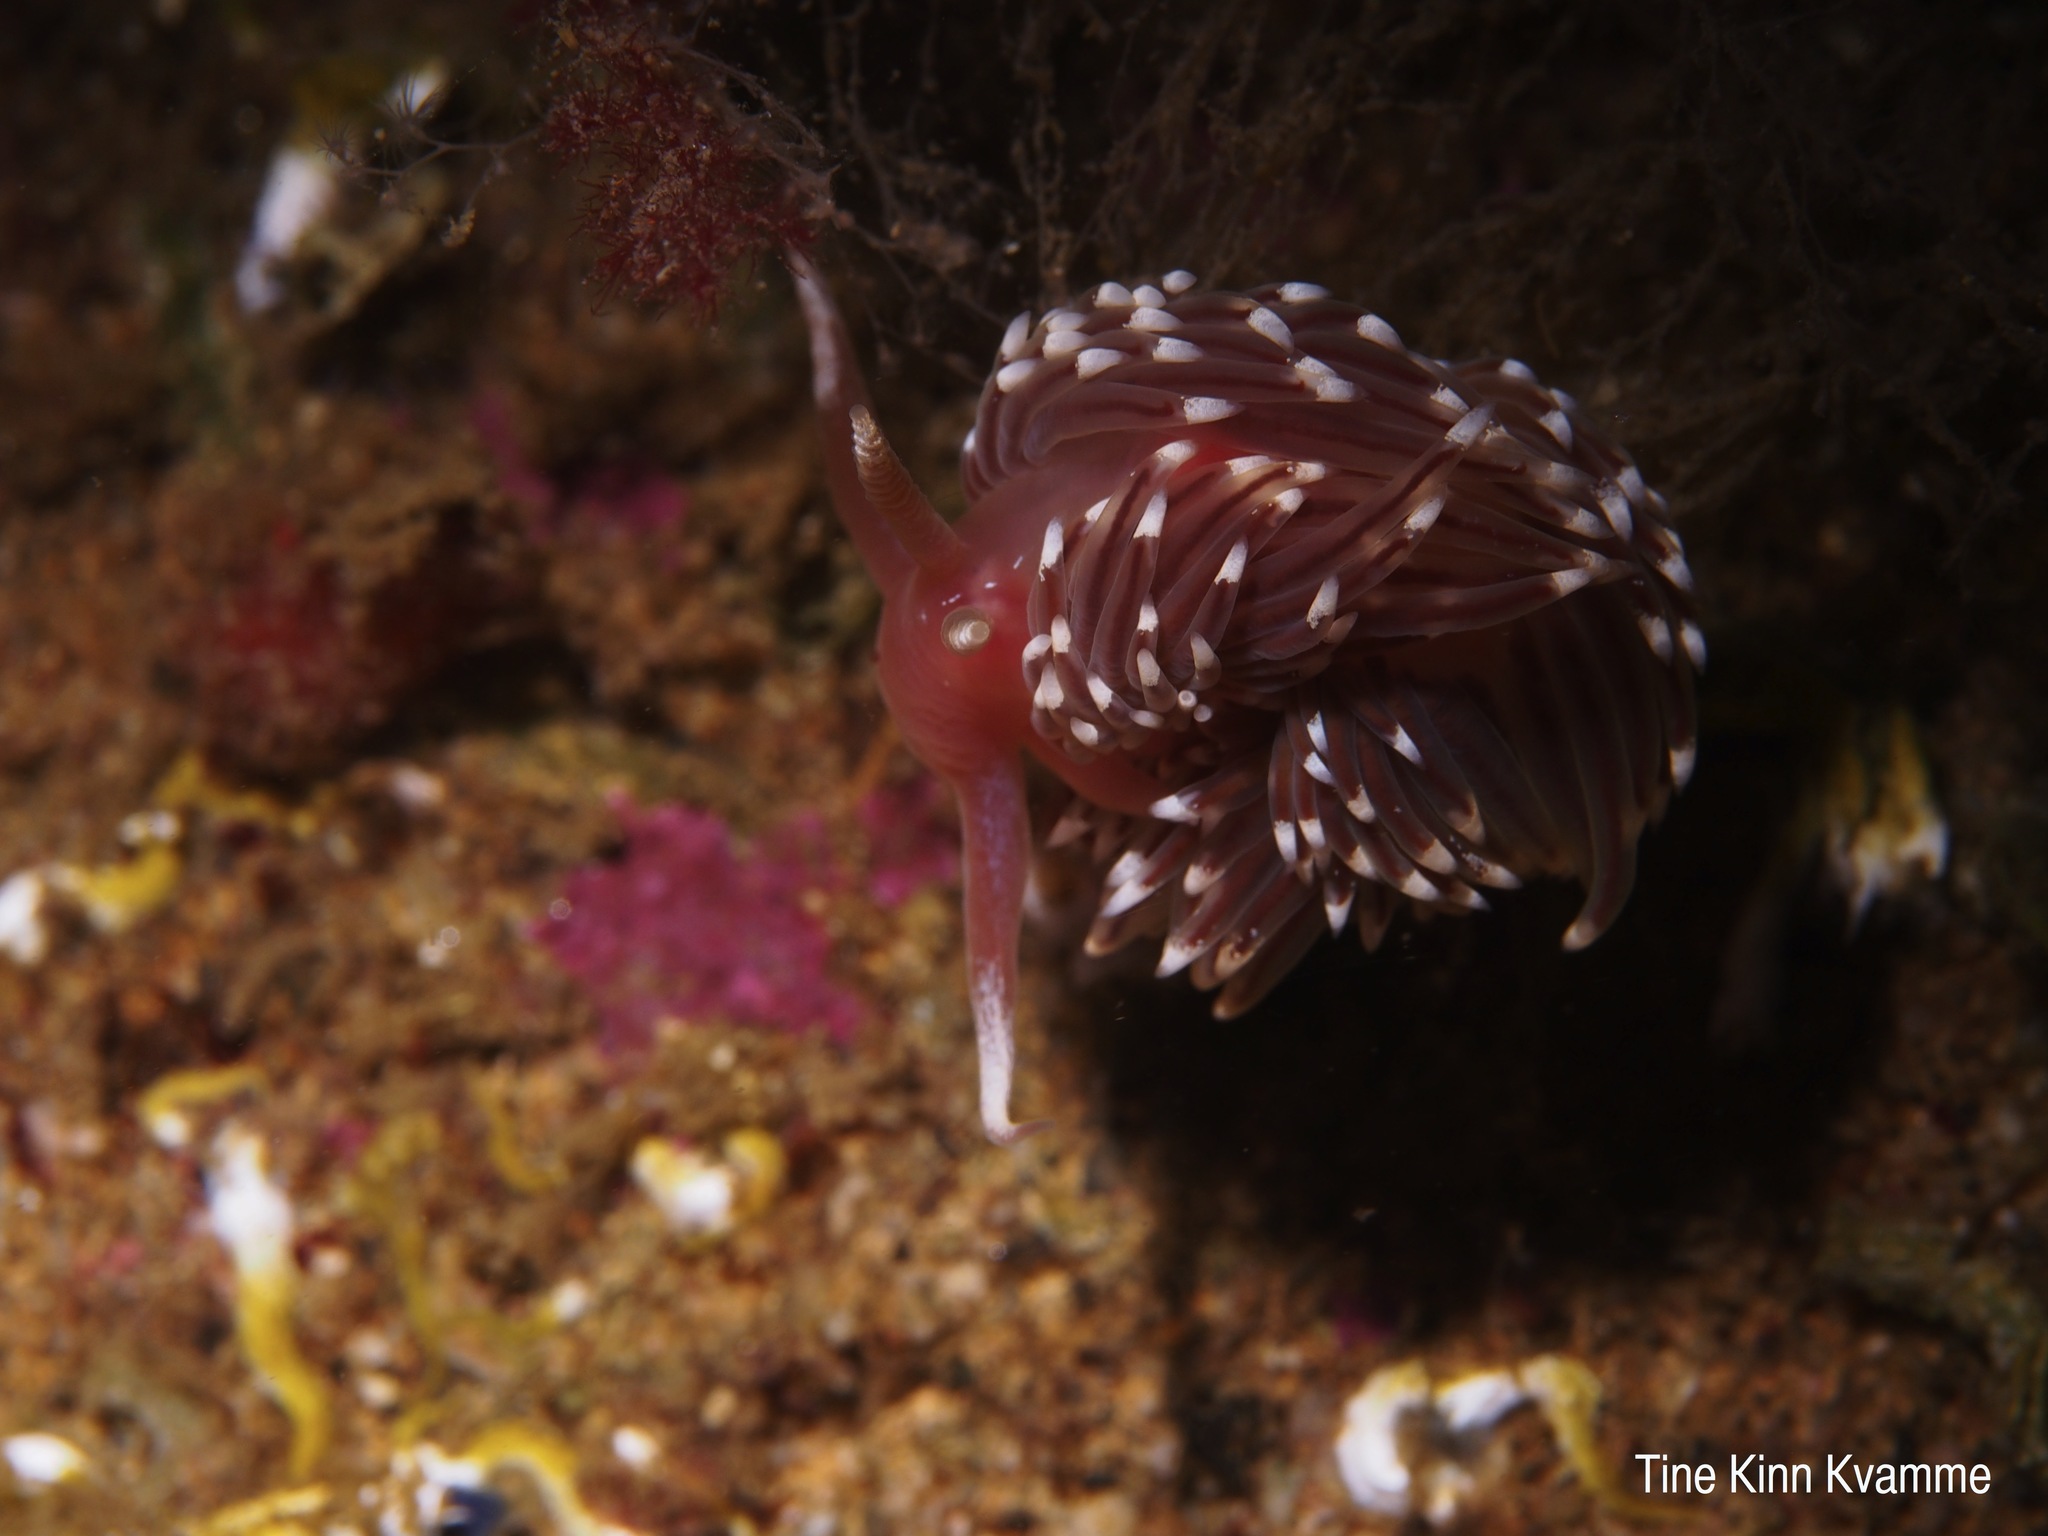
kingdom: Animalia
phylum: Mollusca
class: Gastropoda
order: Nudibranchia
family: Facelinidae
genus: Facelina
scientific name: Facelina bostoniensis
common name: Boston facelina
